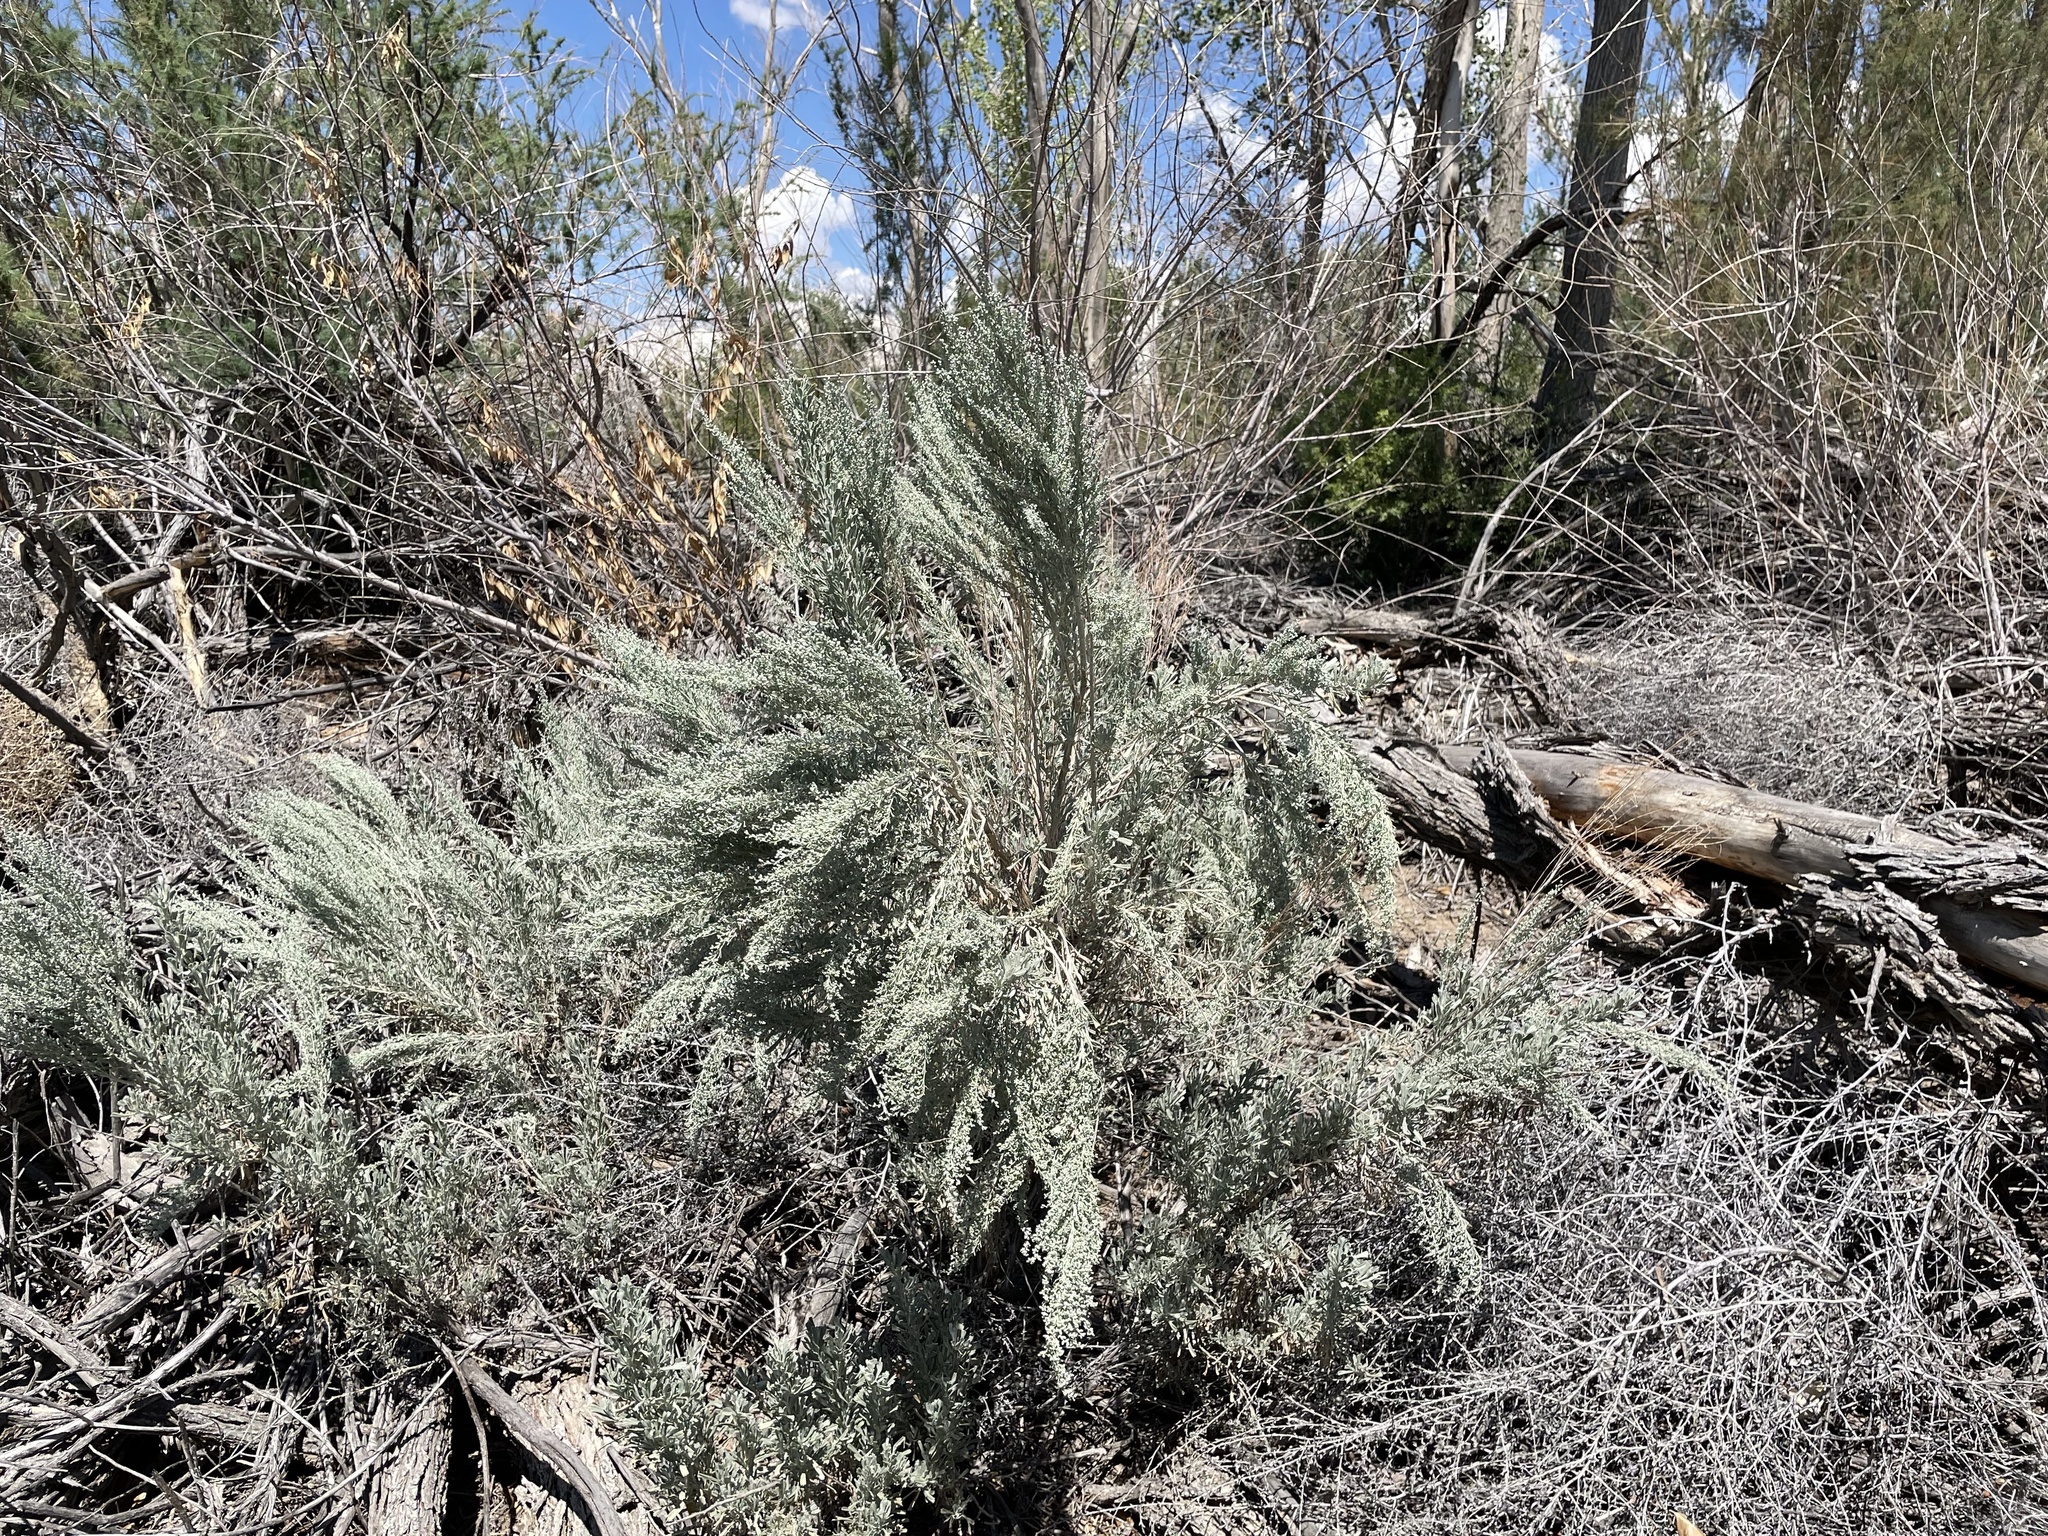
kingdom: Plantae
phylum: Tracheophyta
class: Magnoliopsida
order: Asterales
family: Asteraceae
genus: Artemisia
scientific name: Artemisia tridentata
